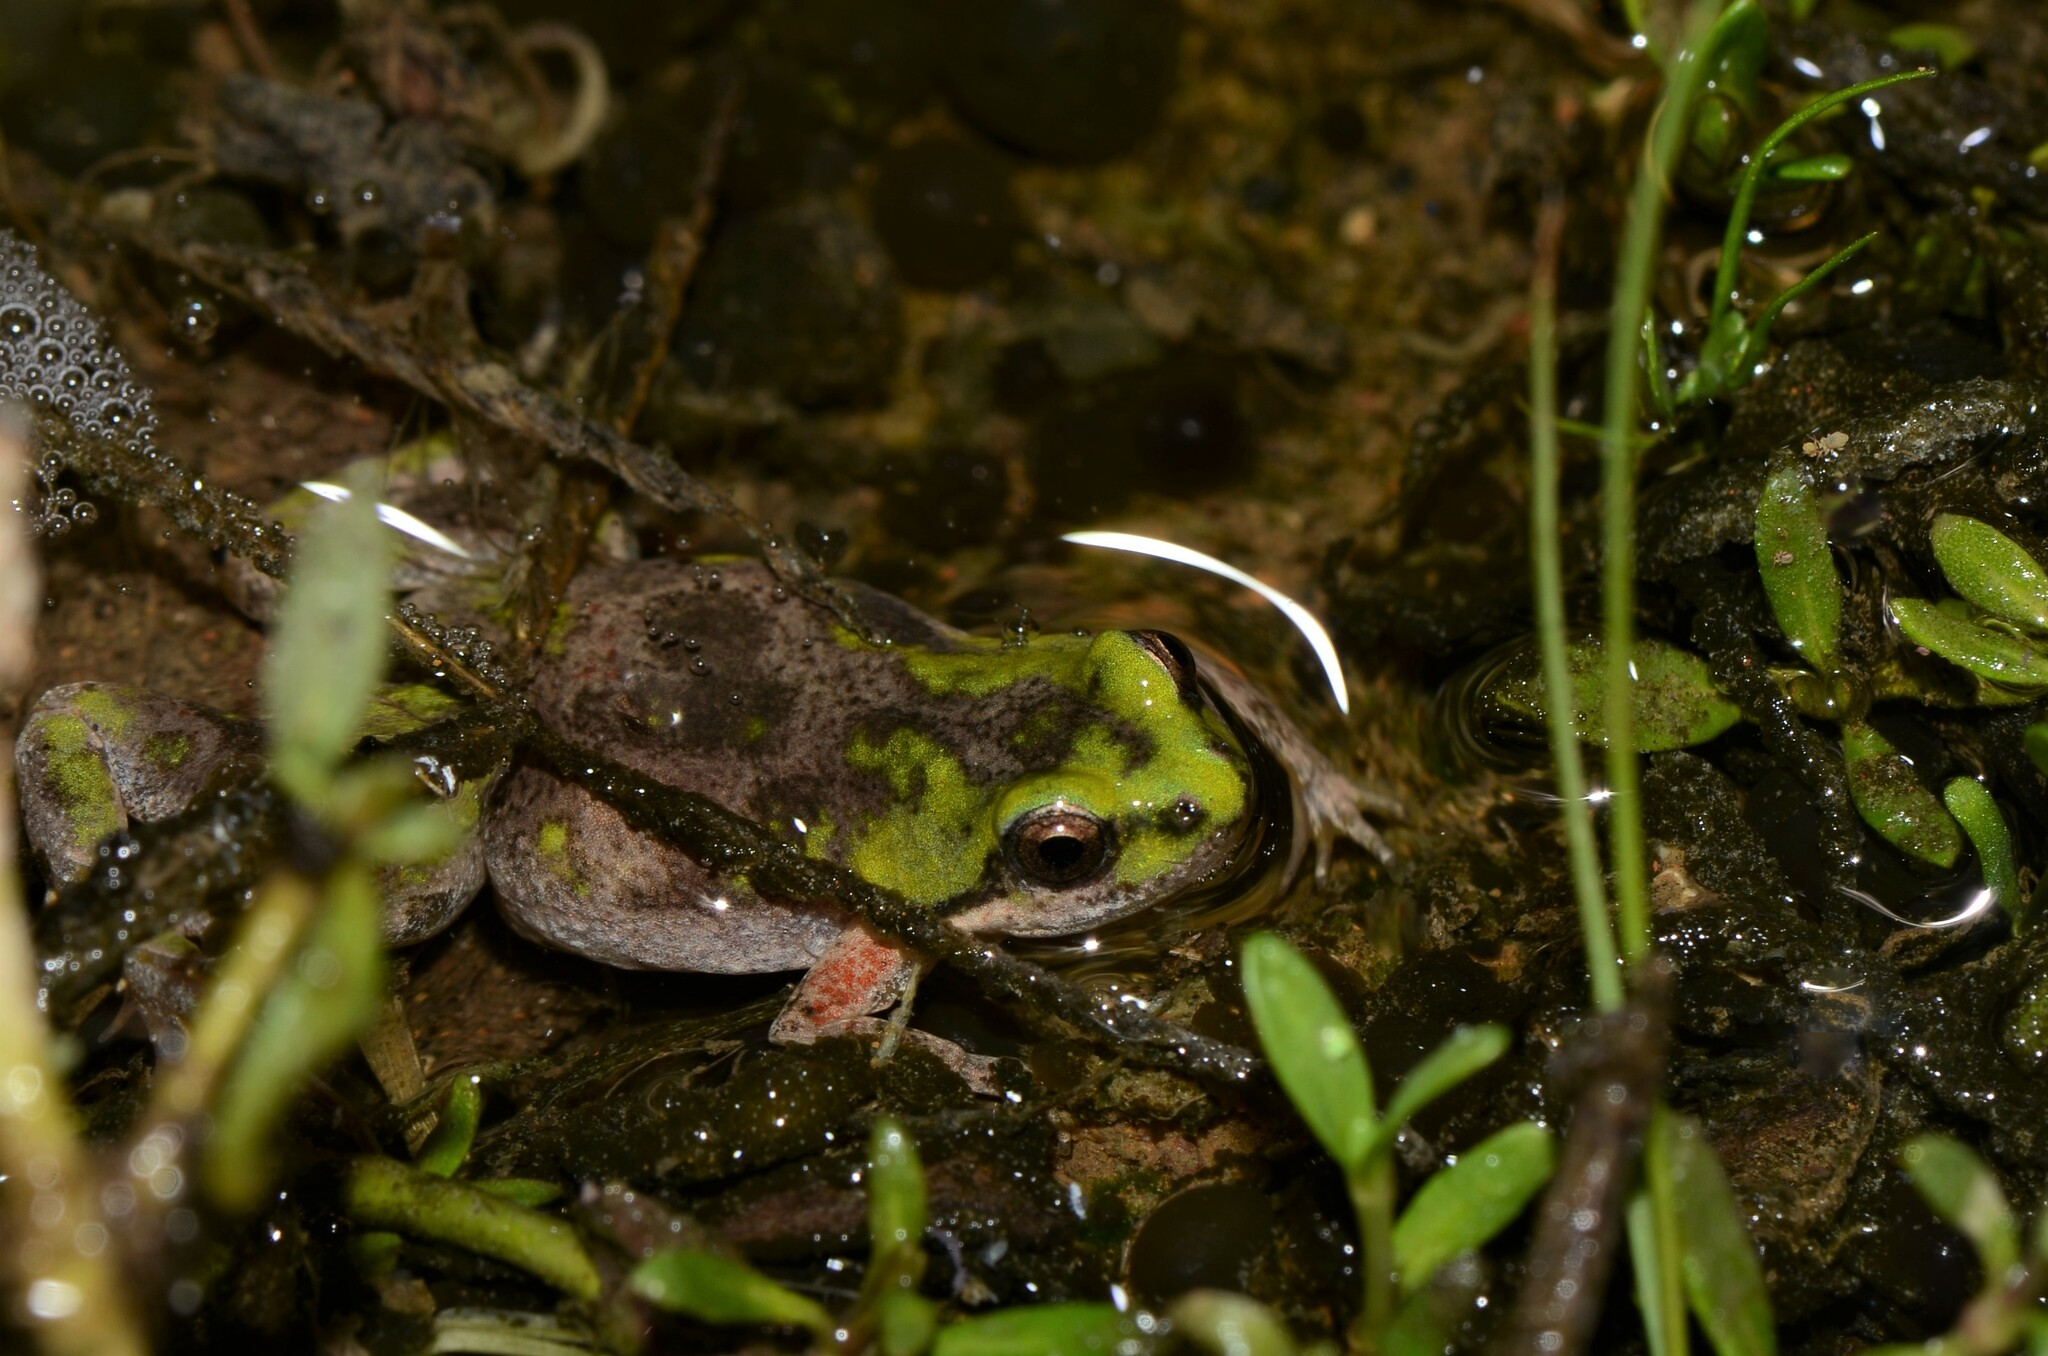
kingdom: Animalia
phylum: Chordata
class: Amphibia
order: Anura
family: Pyxicephalidae
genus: Cacosternum
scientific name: Cacosternum aggestum
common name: Klipheuwel dainty frog
